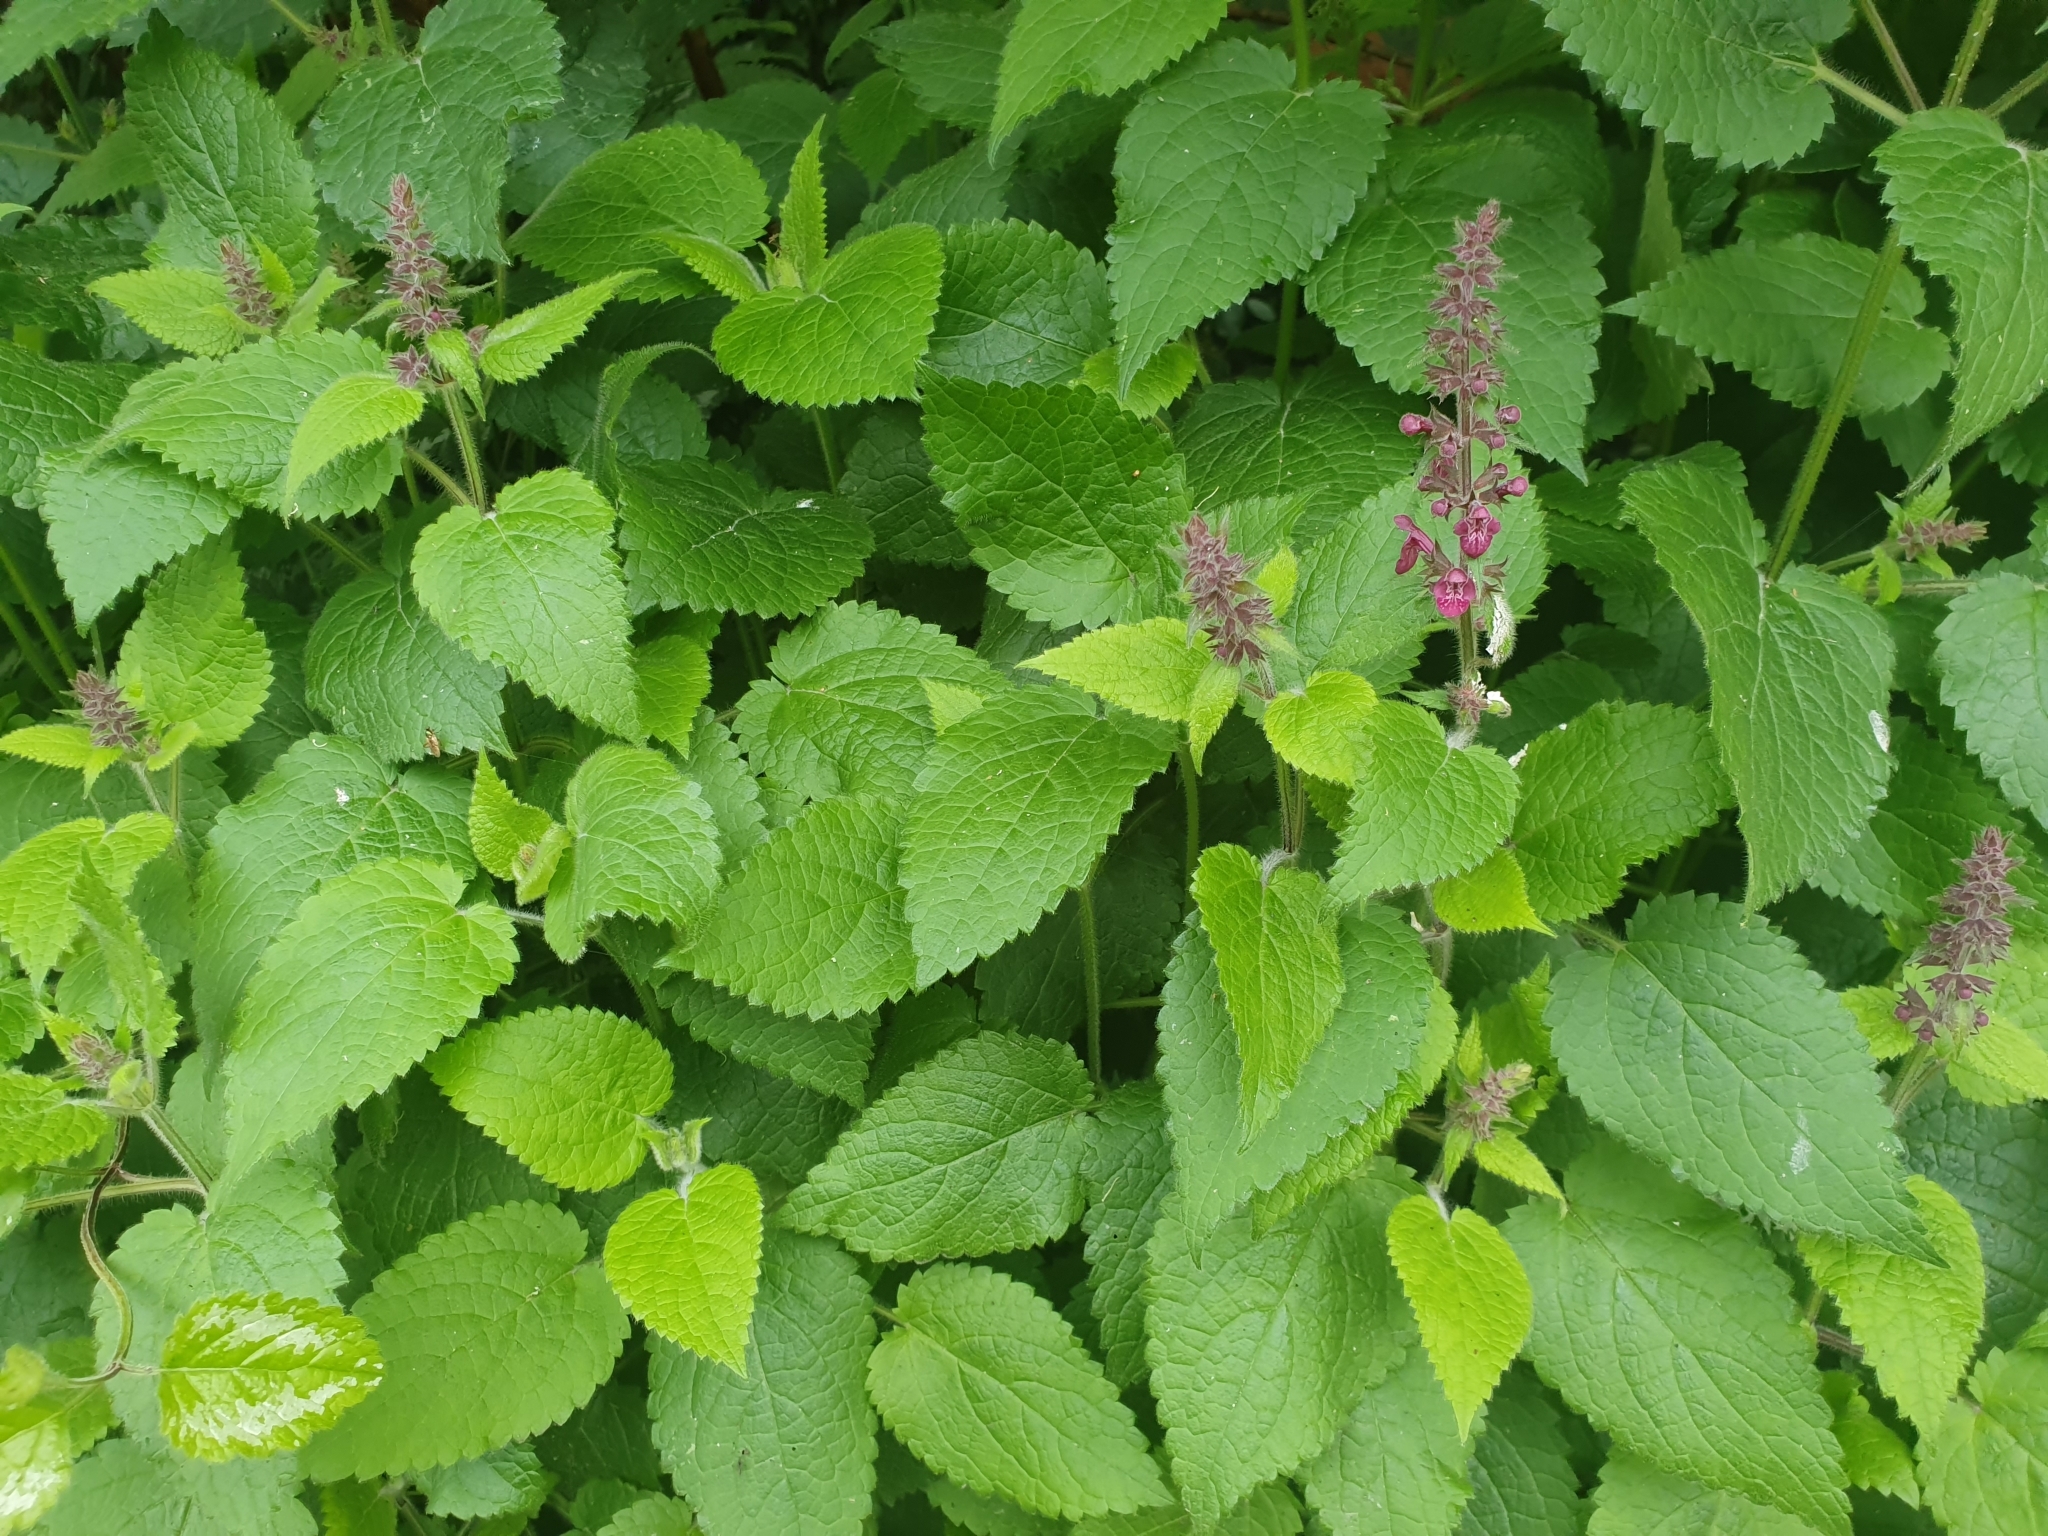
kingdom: Plantae
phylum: Tracheophyta
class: Magnoliopsida
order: Lamiales
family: Lamiaceae
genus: Stachys
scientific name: Stachys sylvatica
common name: Hedge woundwort
